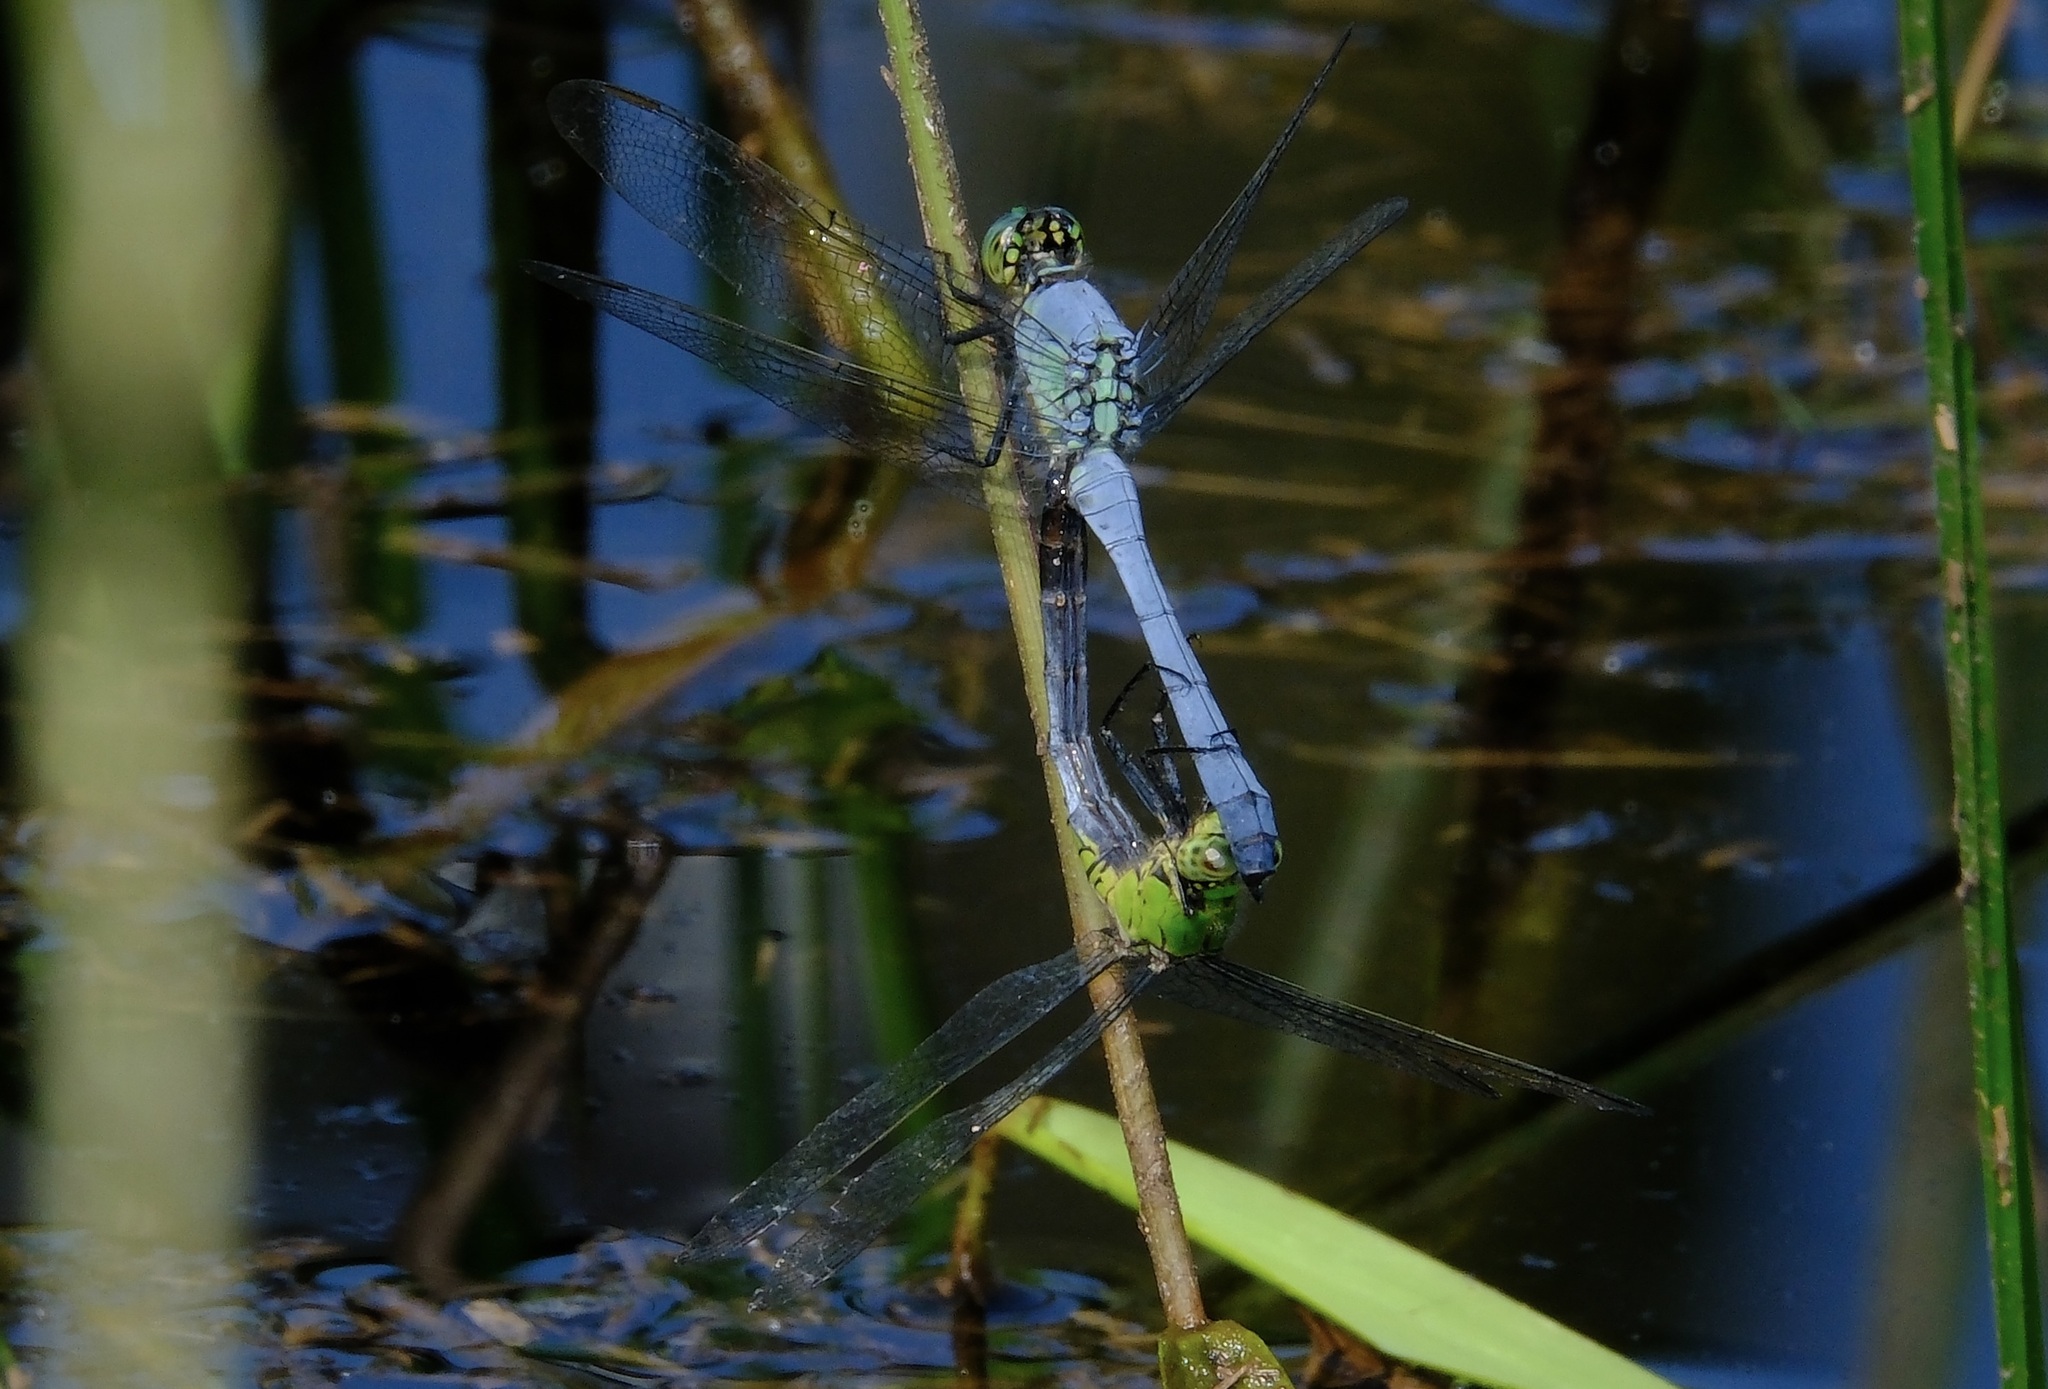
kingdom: Animalia
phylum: Arthropoda
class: Insecta
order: Odonata
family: Libellulidae
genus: Erythemis
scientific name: Erythemis simplicicollis
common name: Eastern pondhawk
